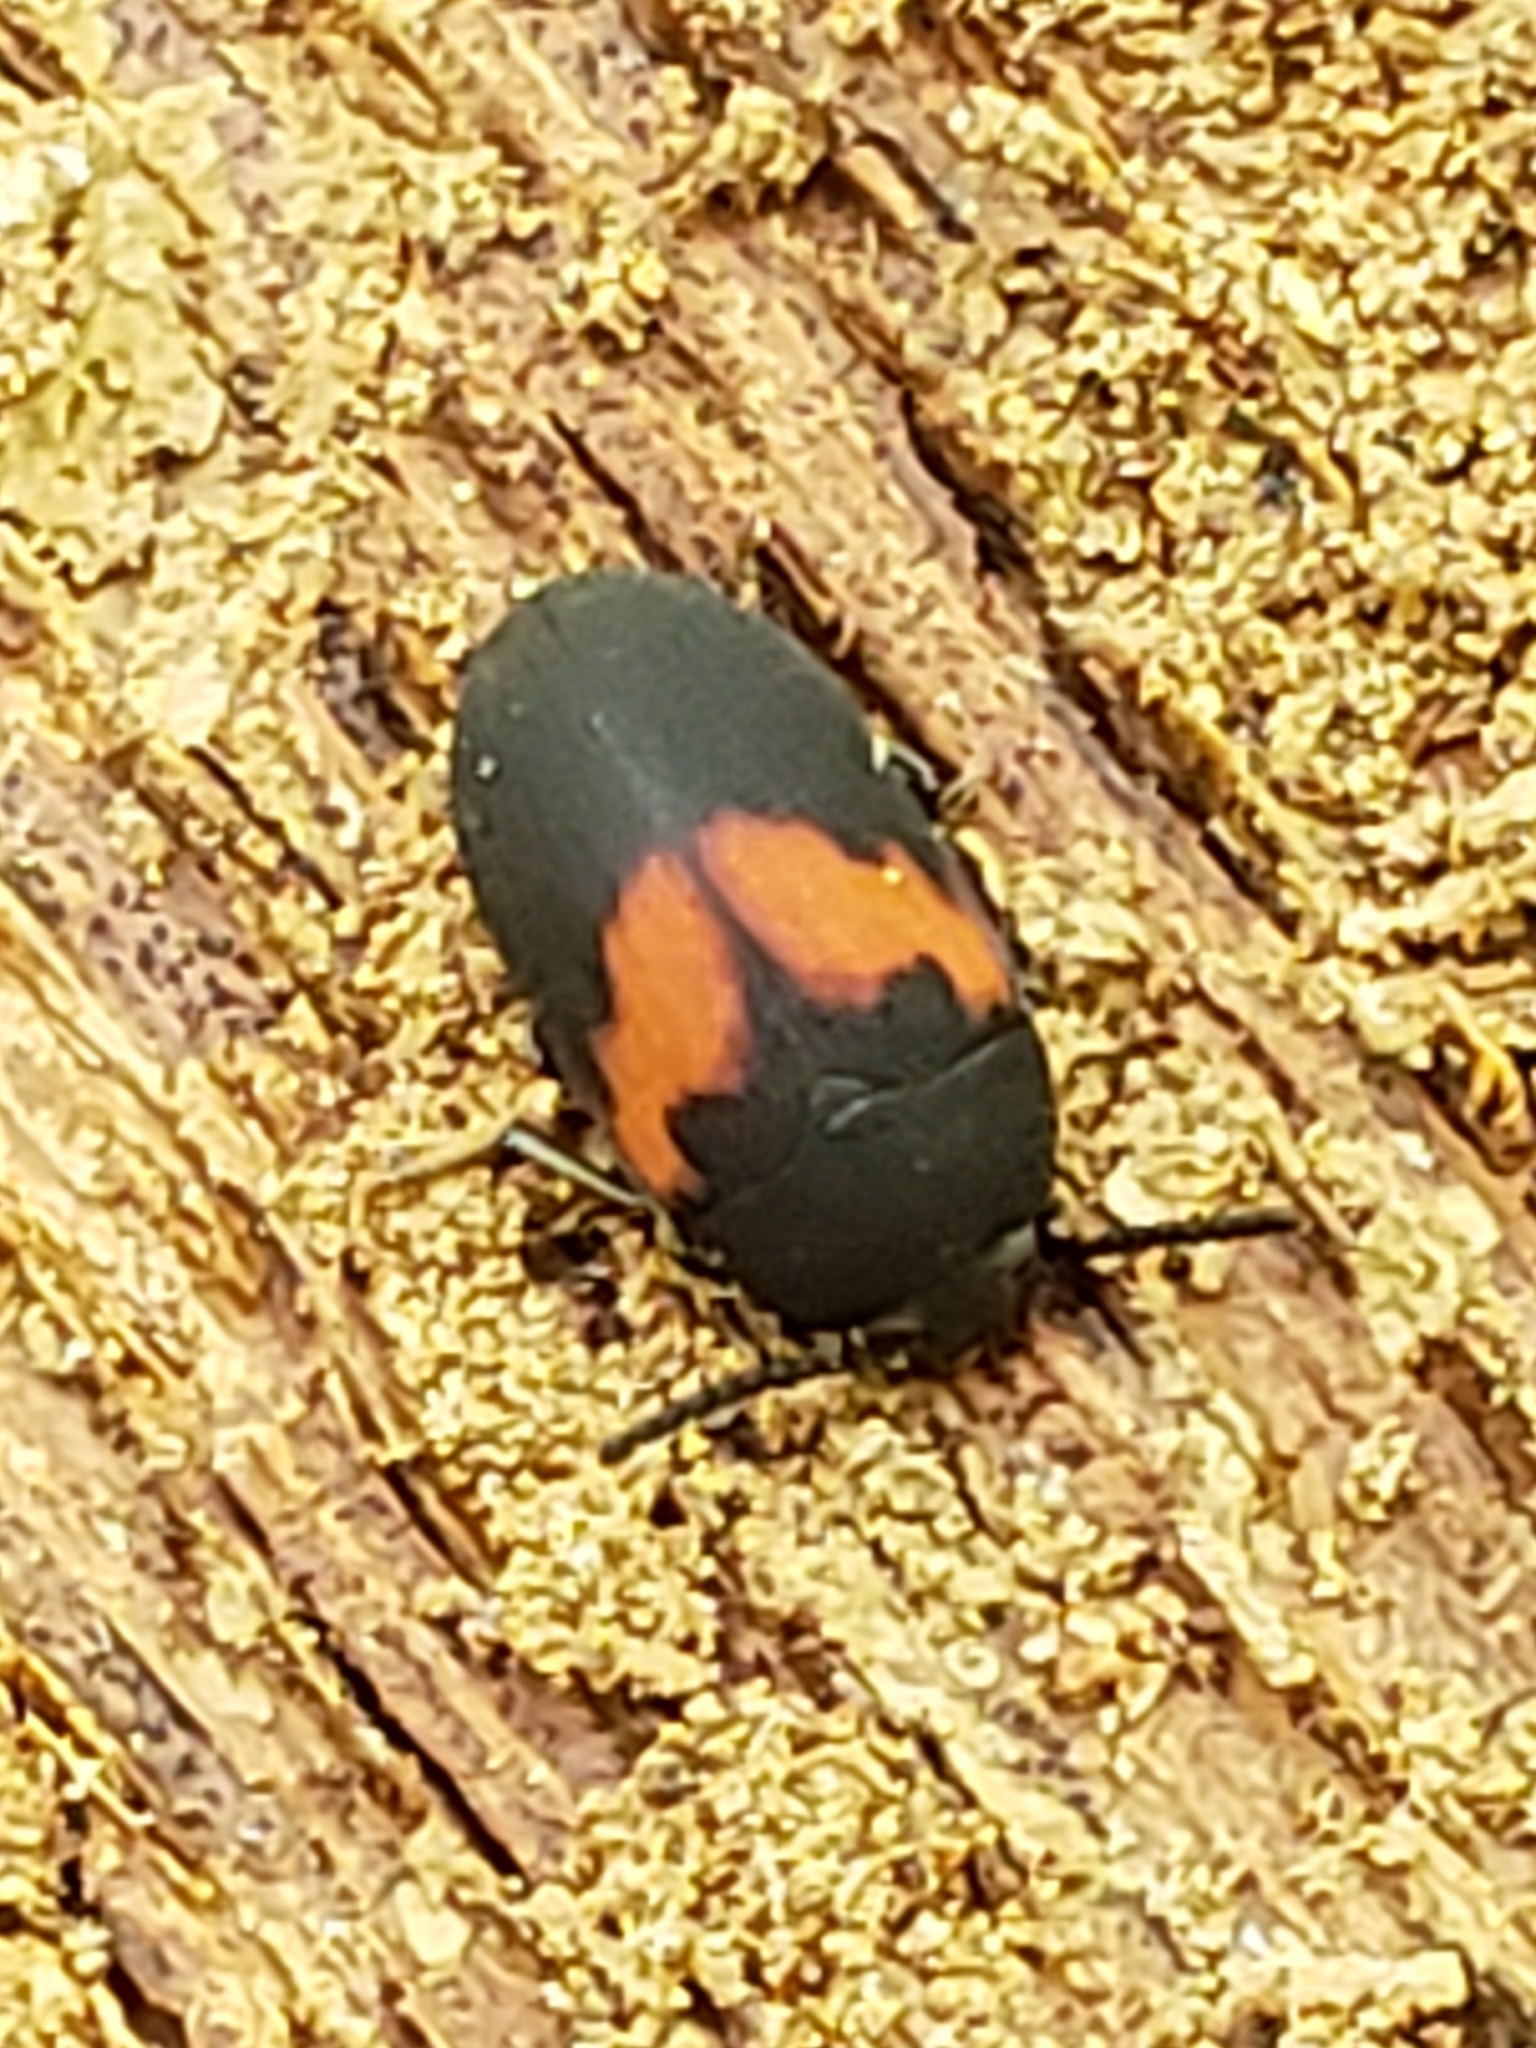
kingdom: Animalia
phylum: Arthropoda
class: Insecta
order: Coleoptera
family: Tenebrionidae
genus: Platydema
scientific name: Platydema elliptica
